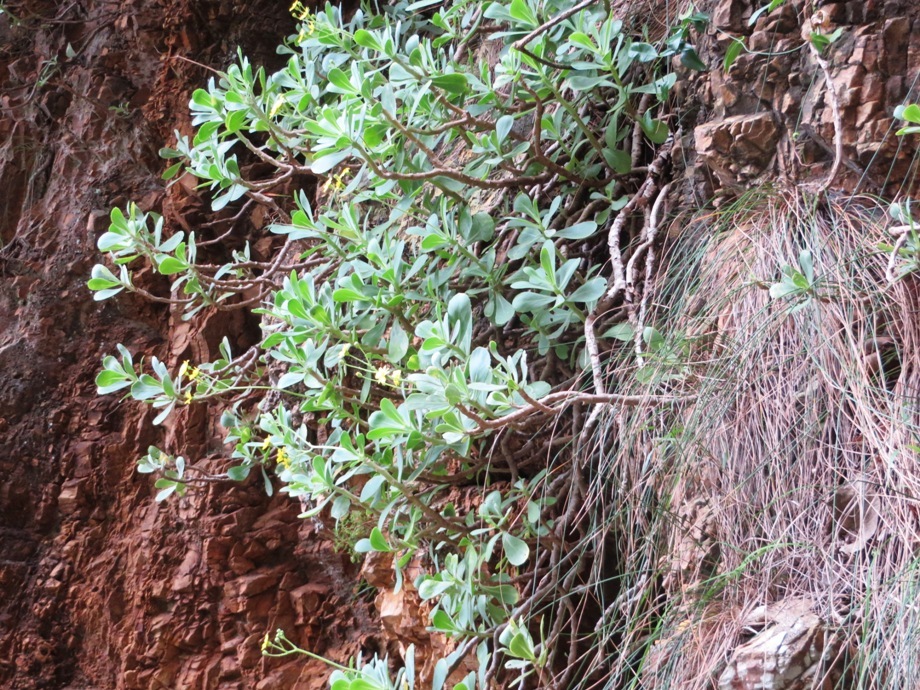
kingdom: Plantae
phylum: Tracheophyta
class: Magnoliopsida
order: Asterales
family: Asteraceae
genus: Othonna
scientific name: Othonna dentata
